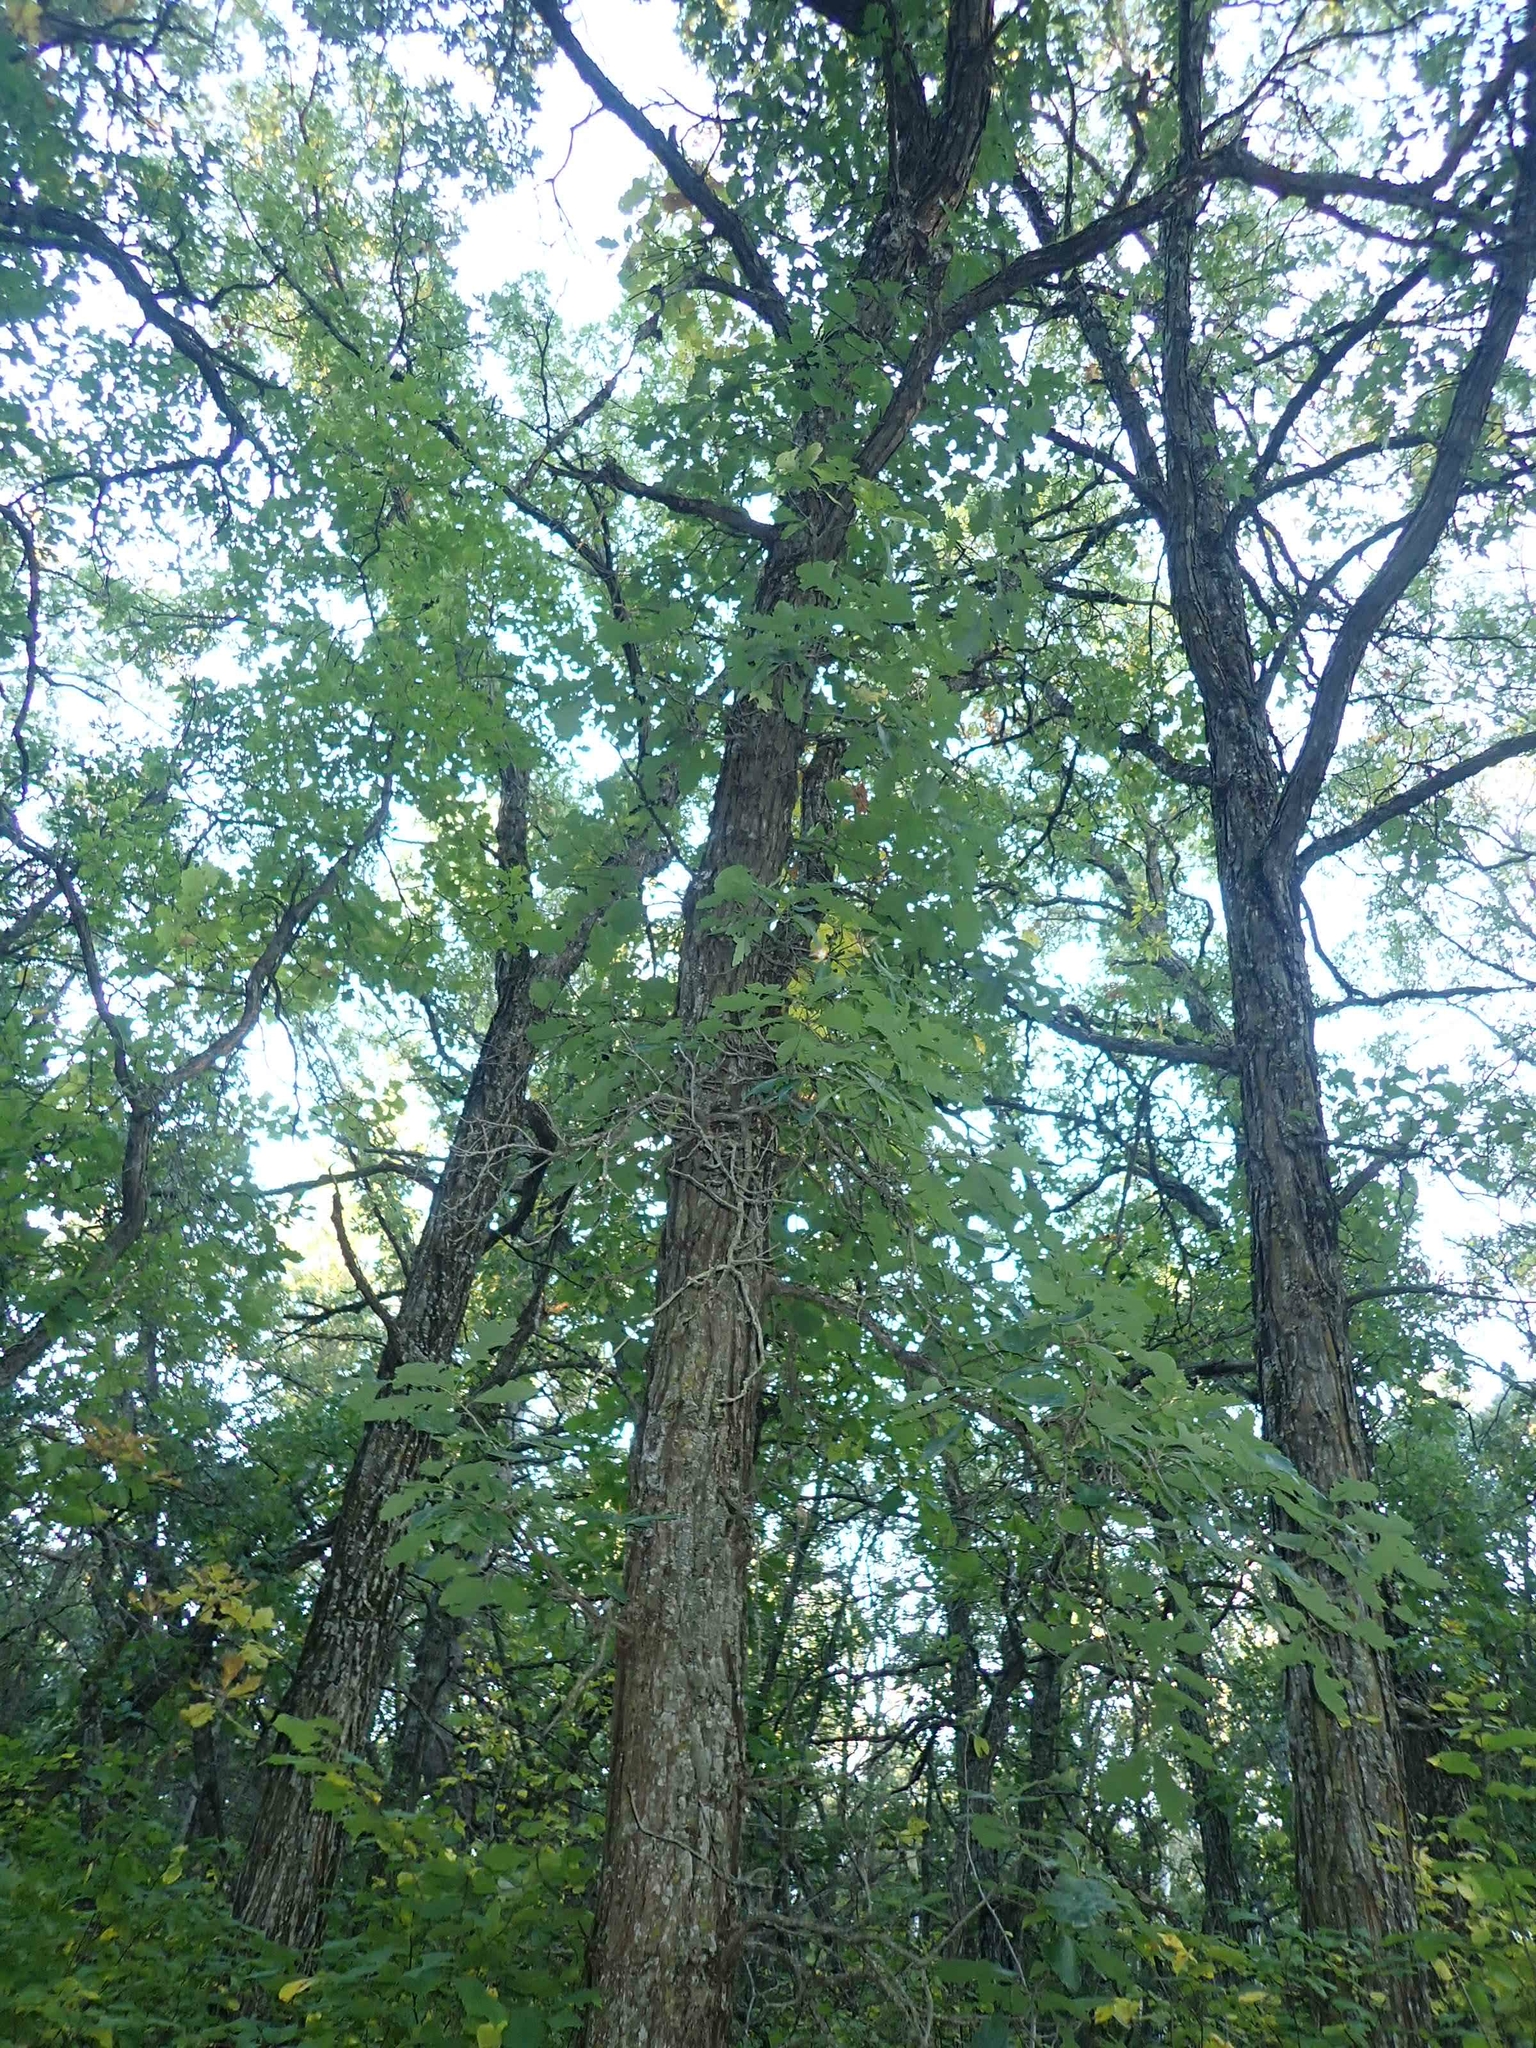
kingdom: Plantae
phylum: Tracheophyta
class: Magnoliopsida
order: Fagales
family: Fagaceae
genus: Quercus
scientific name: Quercus macrocarpa
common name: Bur oak
